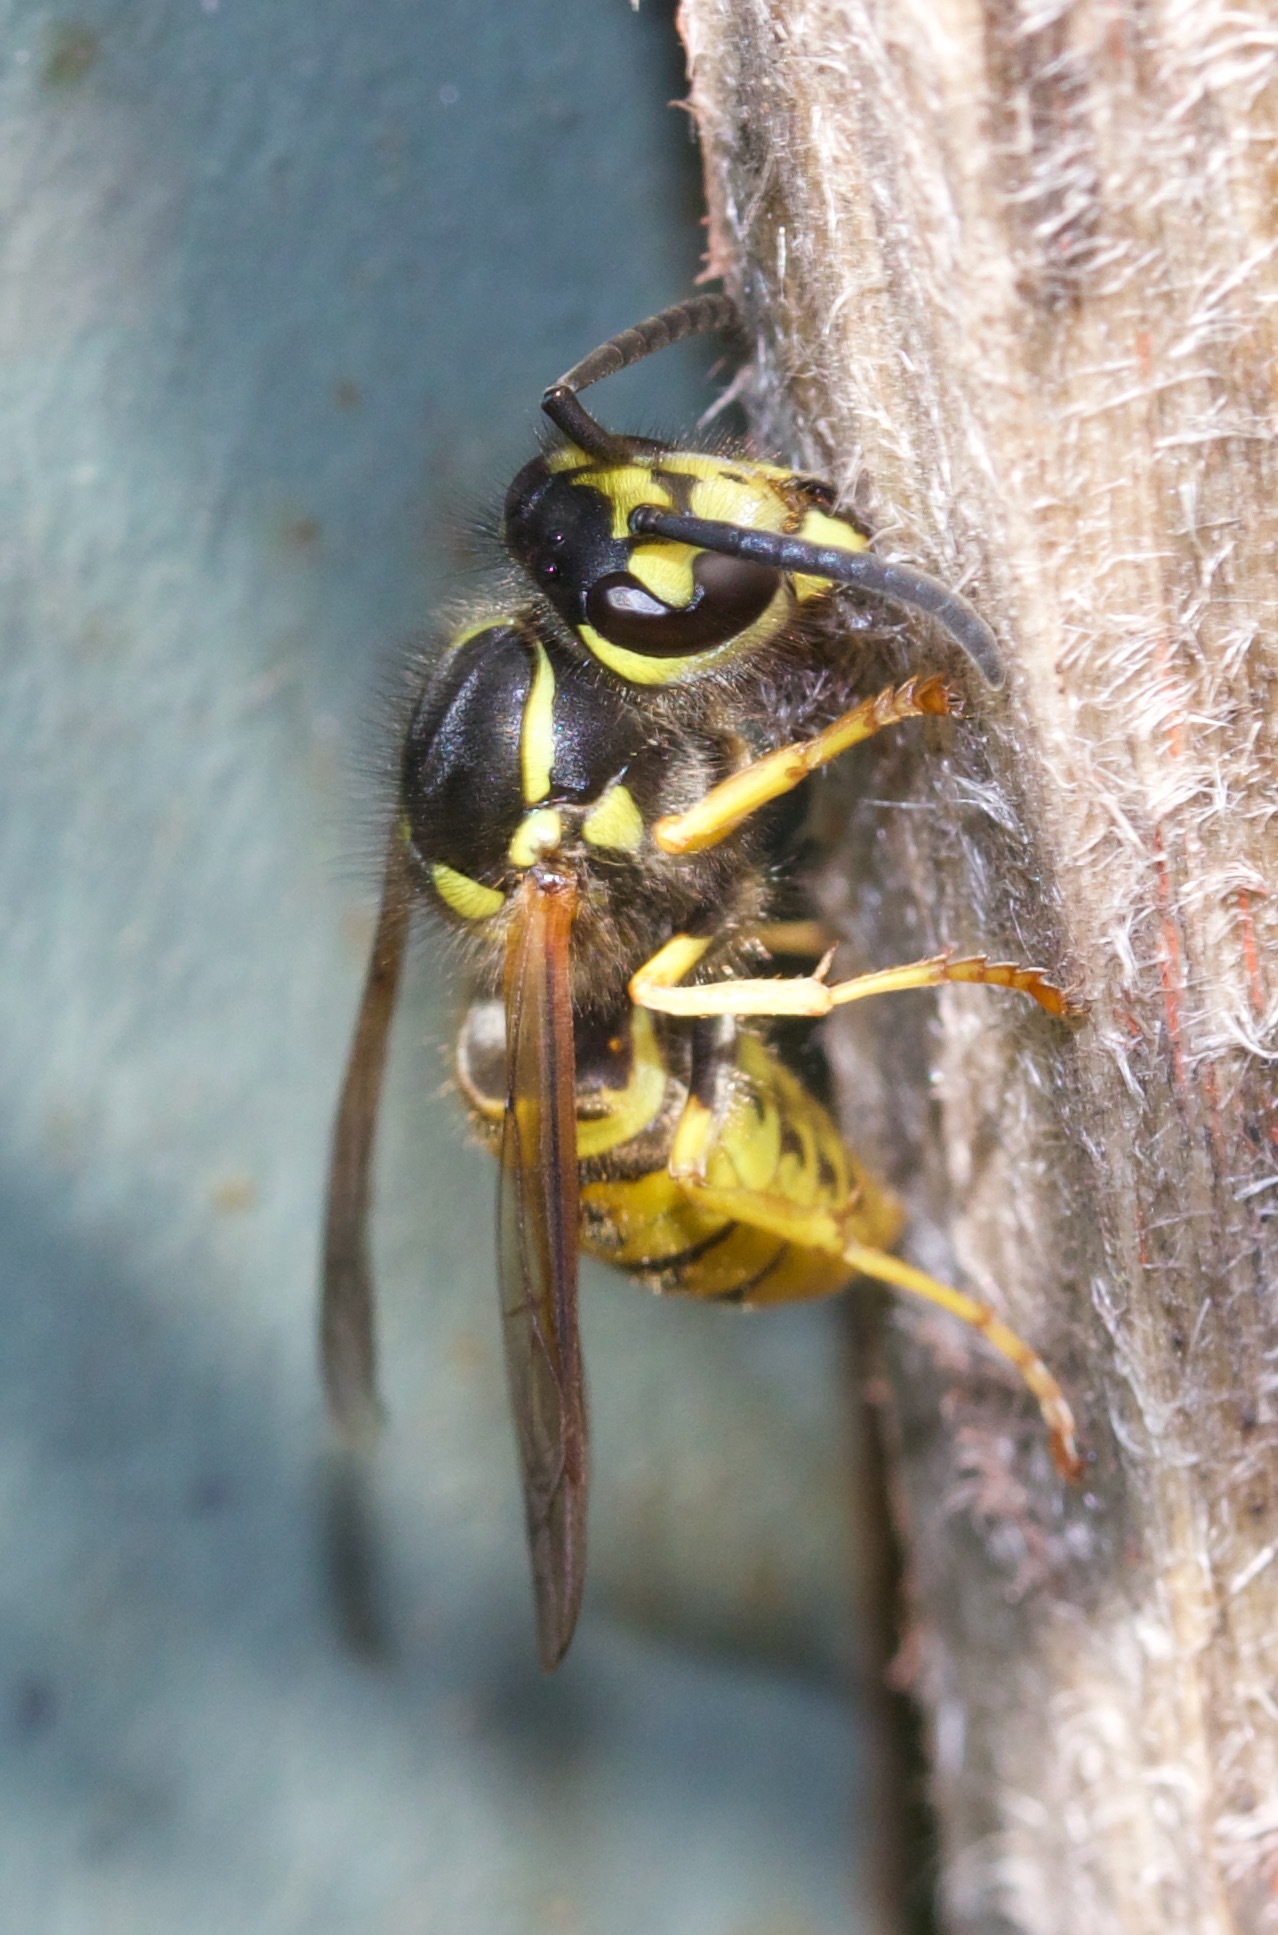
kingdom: Animalia
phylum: Arthropoda
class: Insecta
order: Hymenoptera
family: Vespidae
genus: Vespula
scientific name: Vespula
